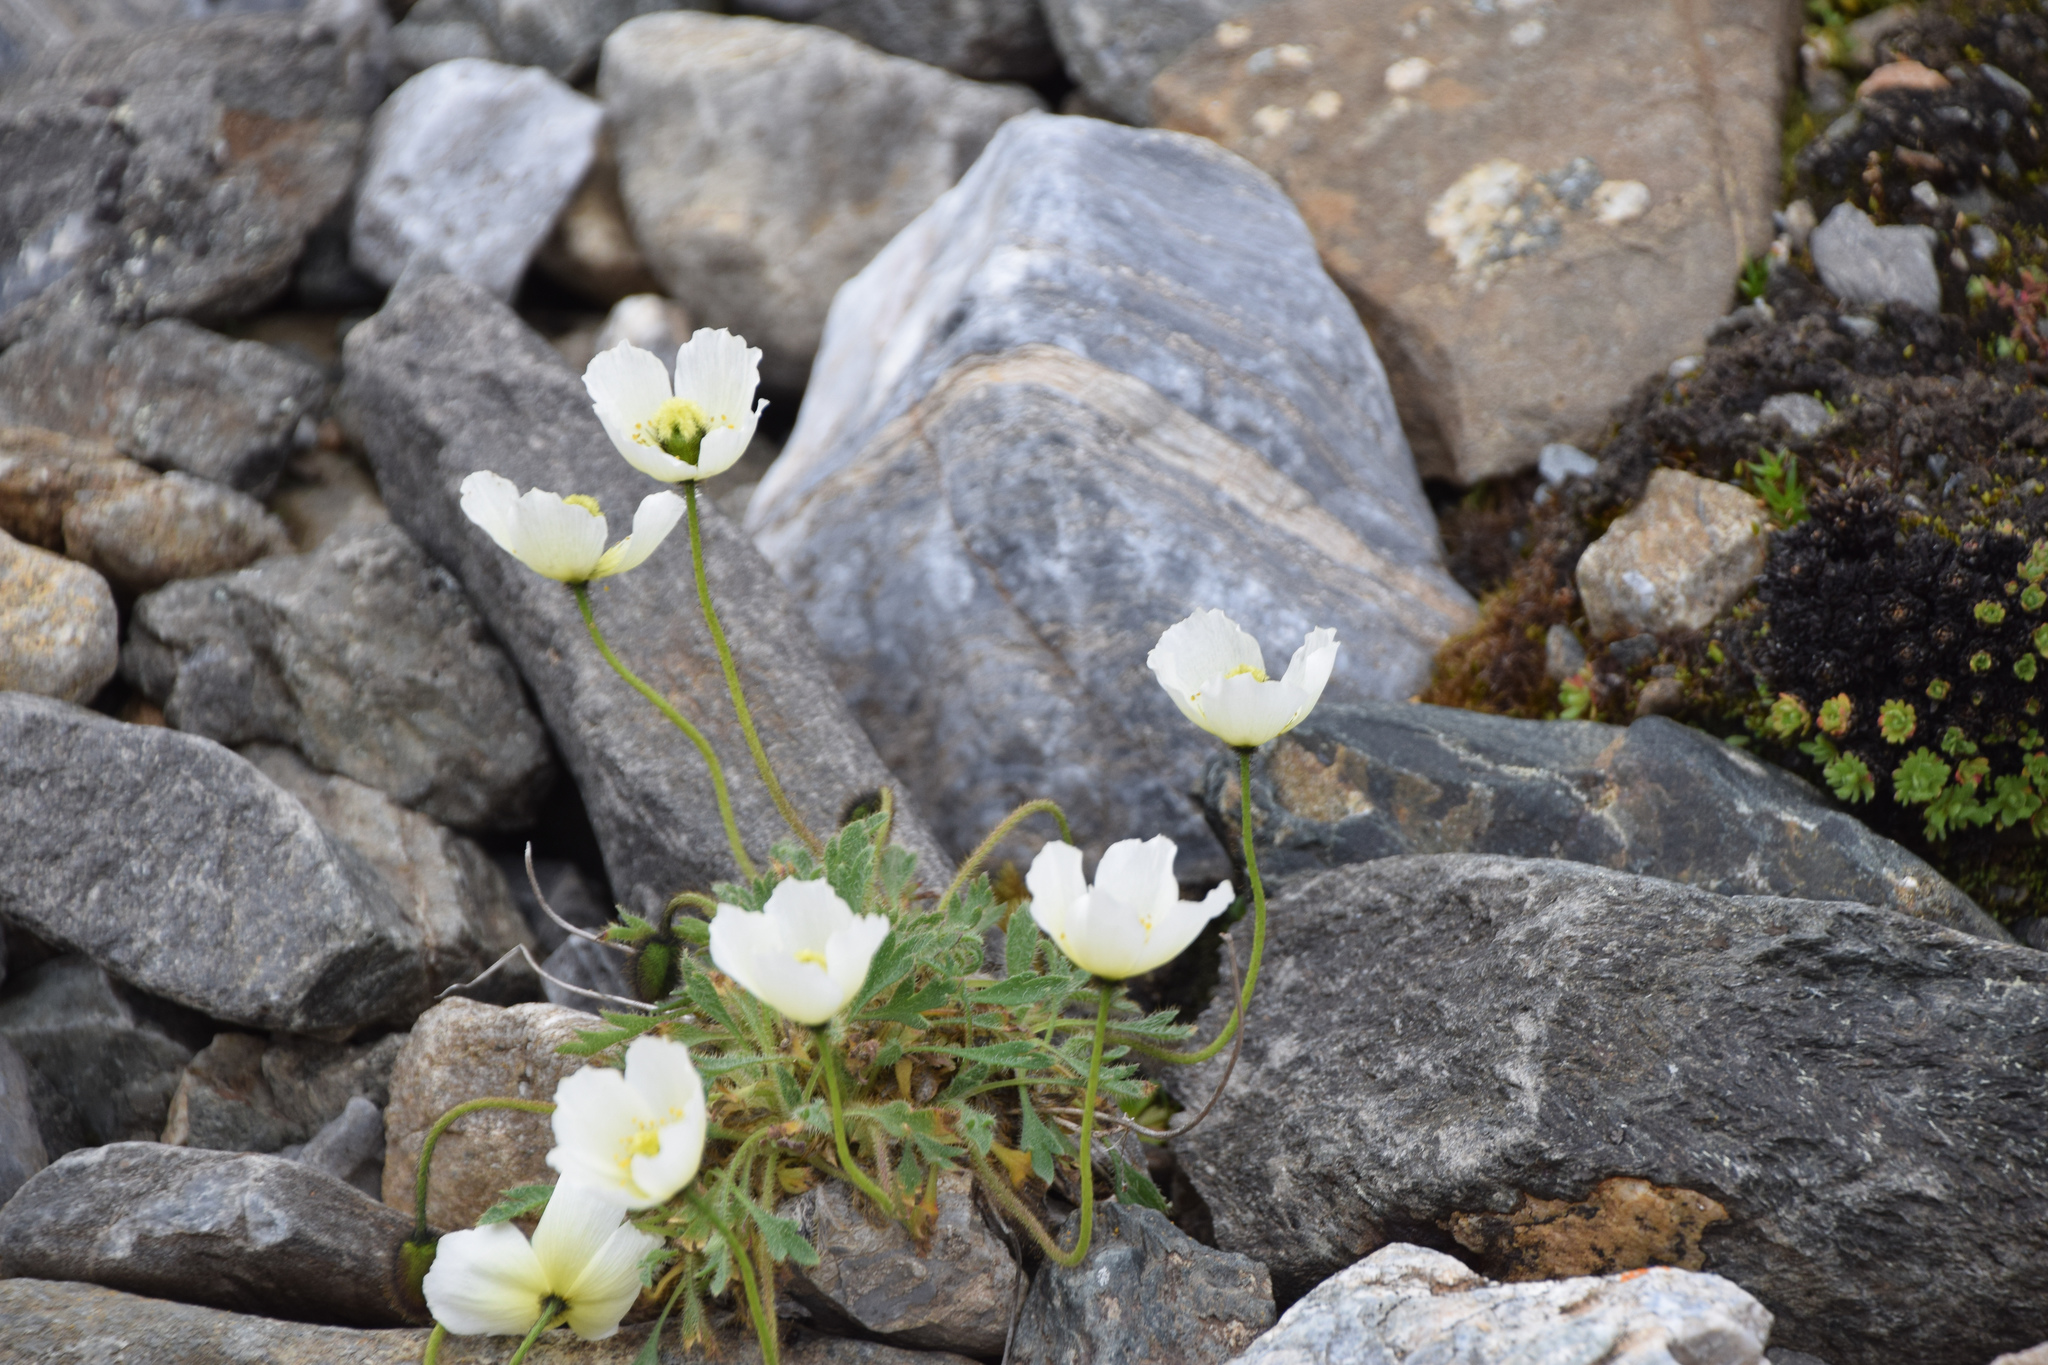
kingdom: Plantae
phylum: Tracheophyta
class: Magnoliopsida
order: Ranunculales
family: Papaveraceae
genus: Papaver
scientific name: Papaver radicatum
